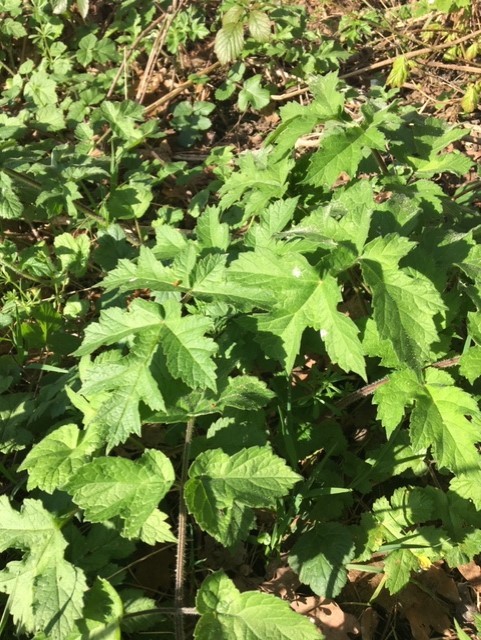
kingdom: Plantae
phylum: Tracheophyta
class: Magnoliopsida
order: Apiales
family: Apiaceae
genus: Heracleum
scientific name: Heracleum sphondylium
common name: Hogweed
